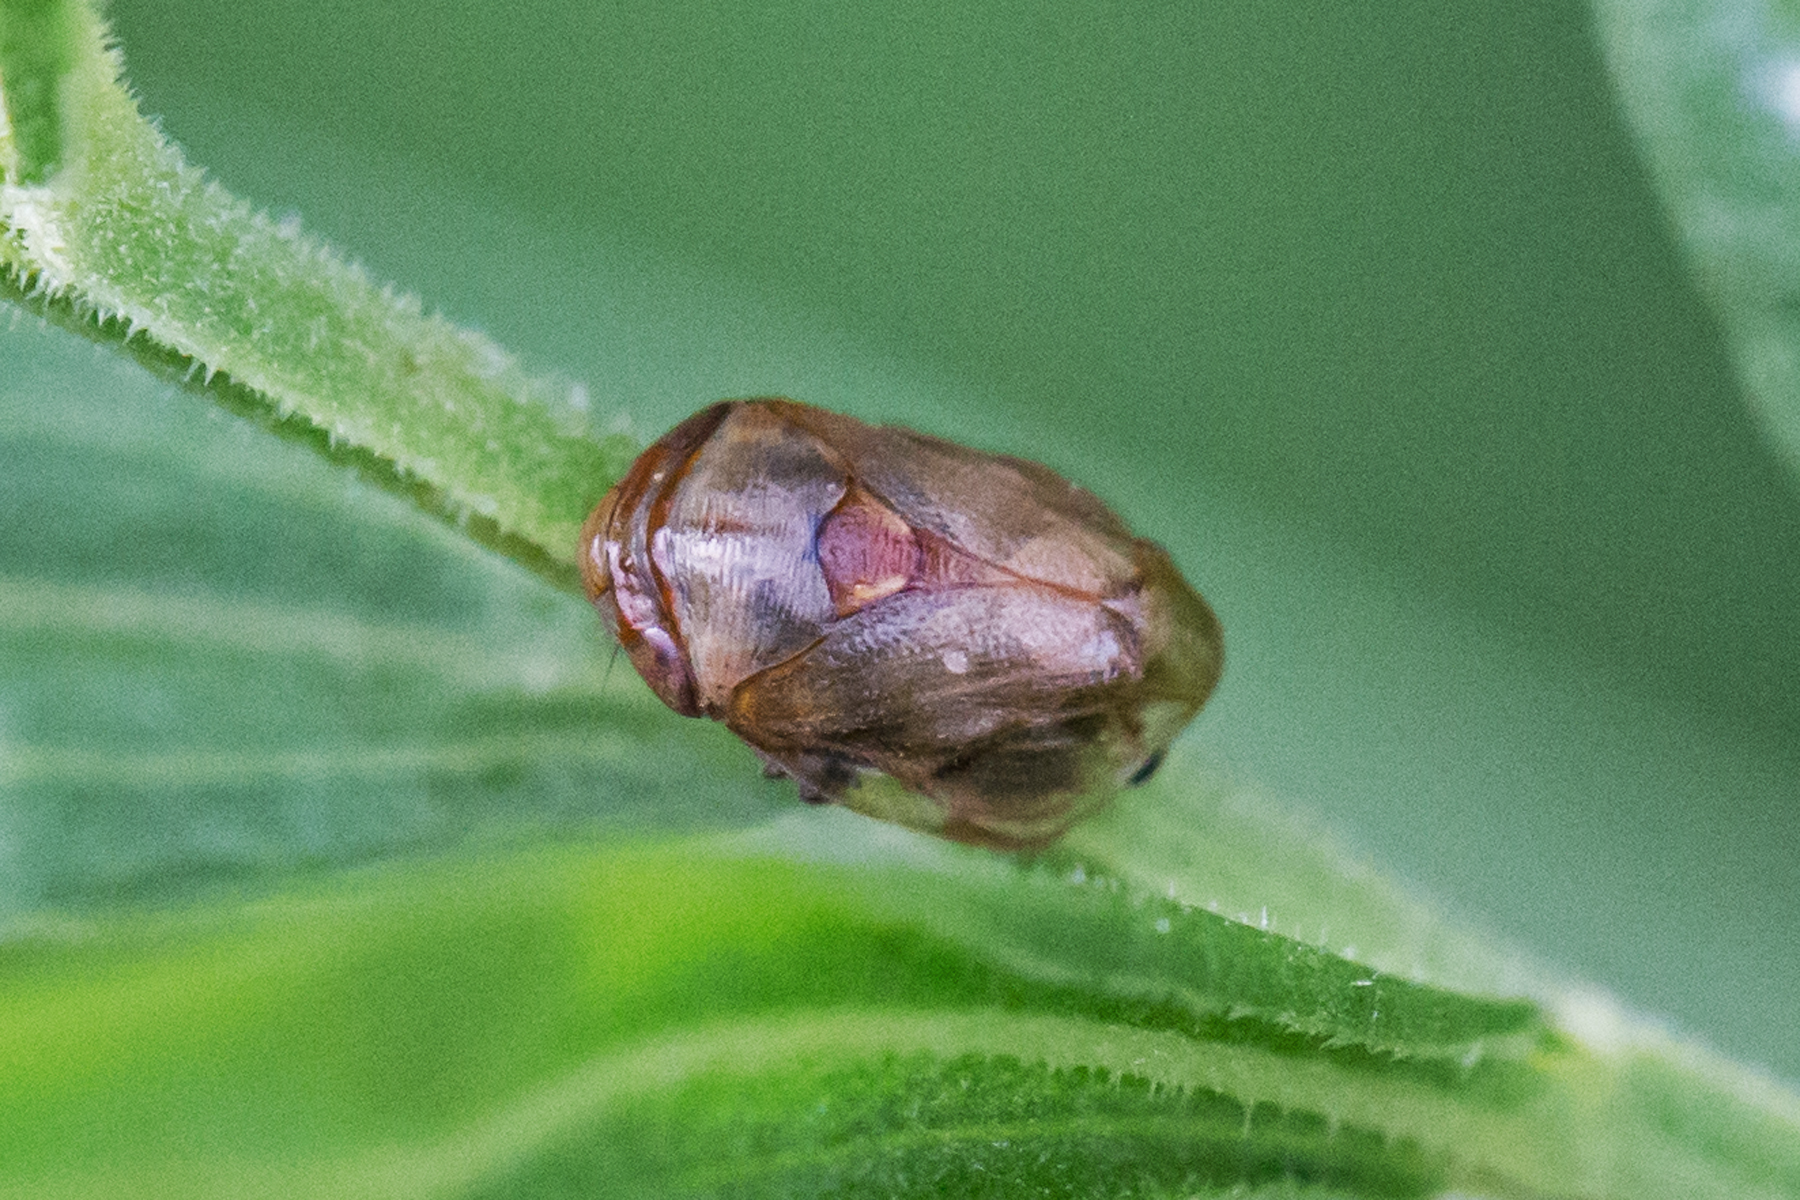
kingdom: Animalia
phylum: Arthropoda
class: Insecta
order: Hemiptera
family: Clastopteridae
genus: Clastoptera
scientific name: Clastoptera xanthocephala
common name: Sunflower spittlebug
